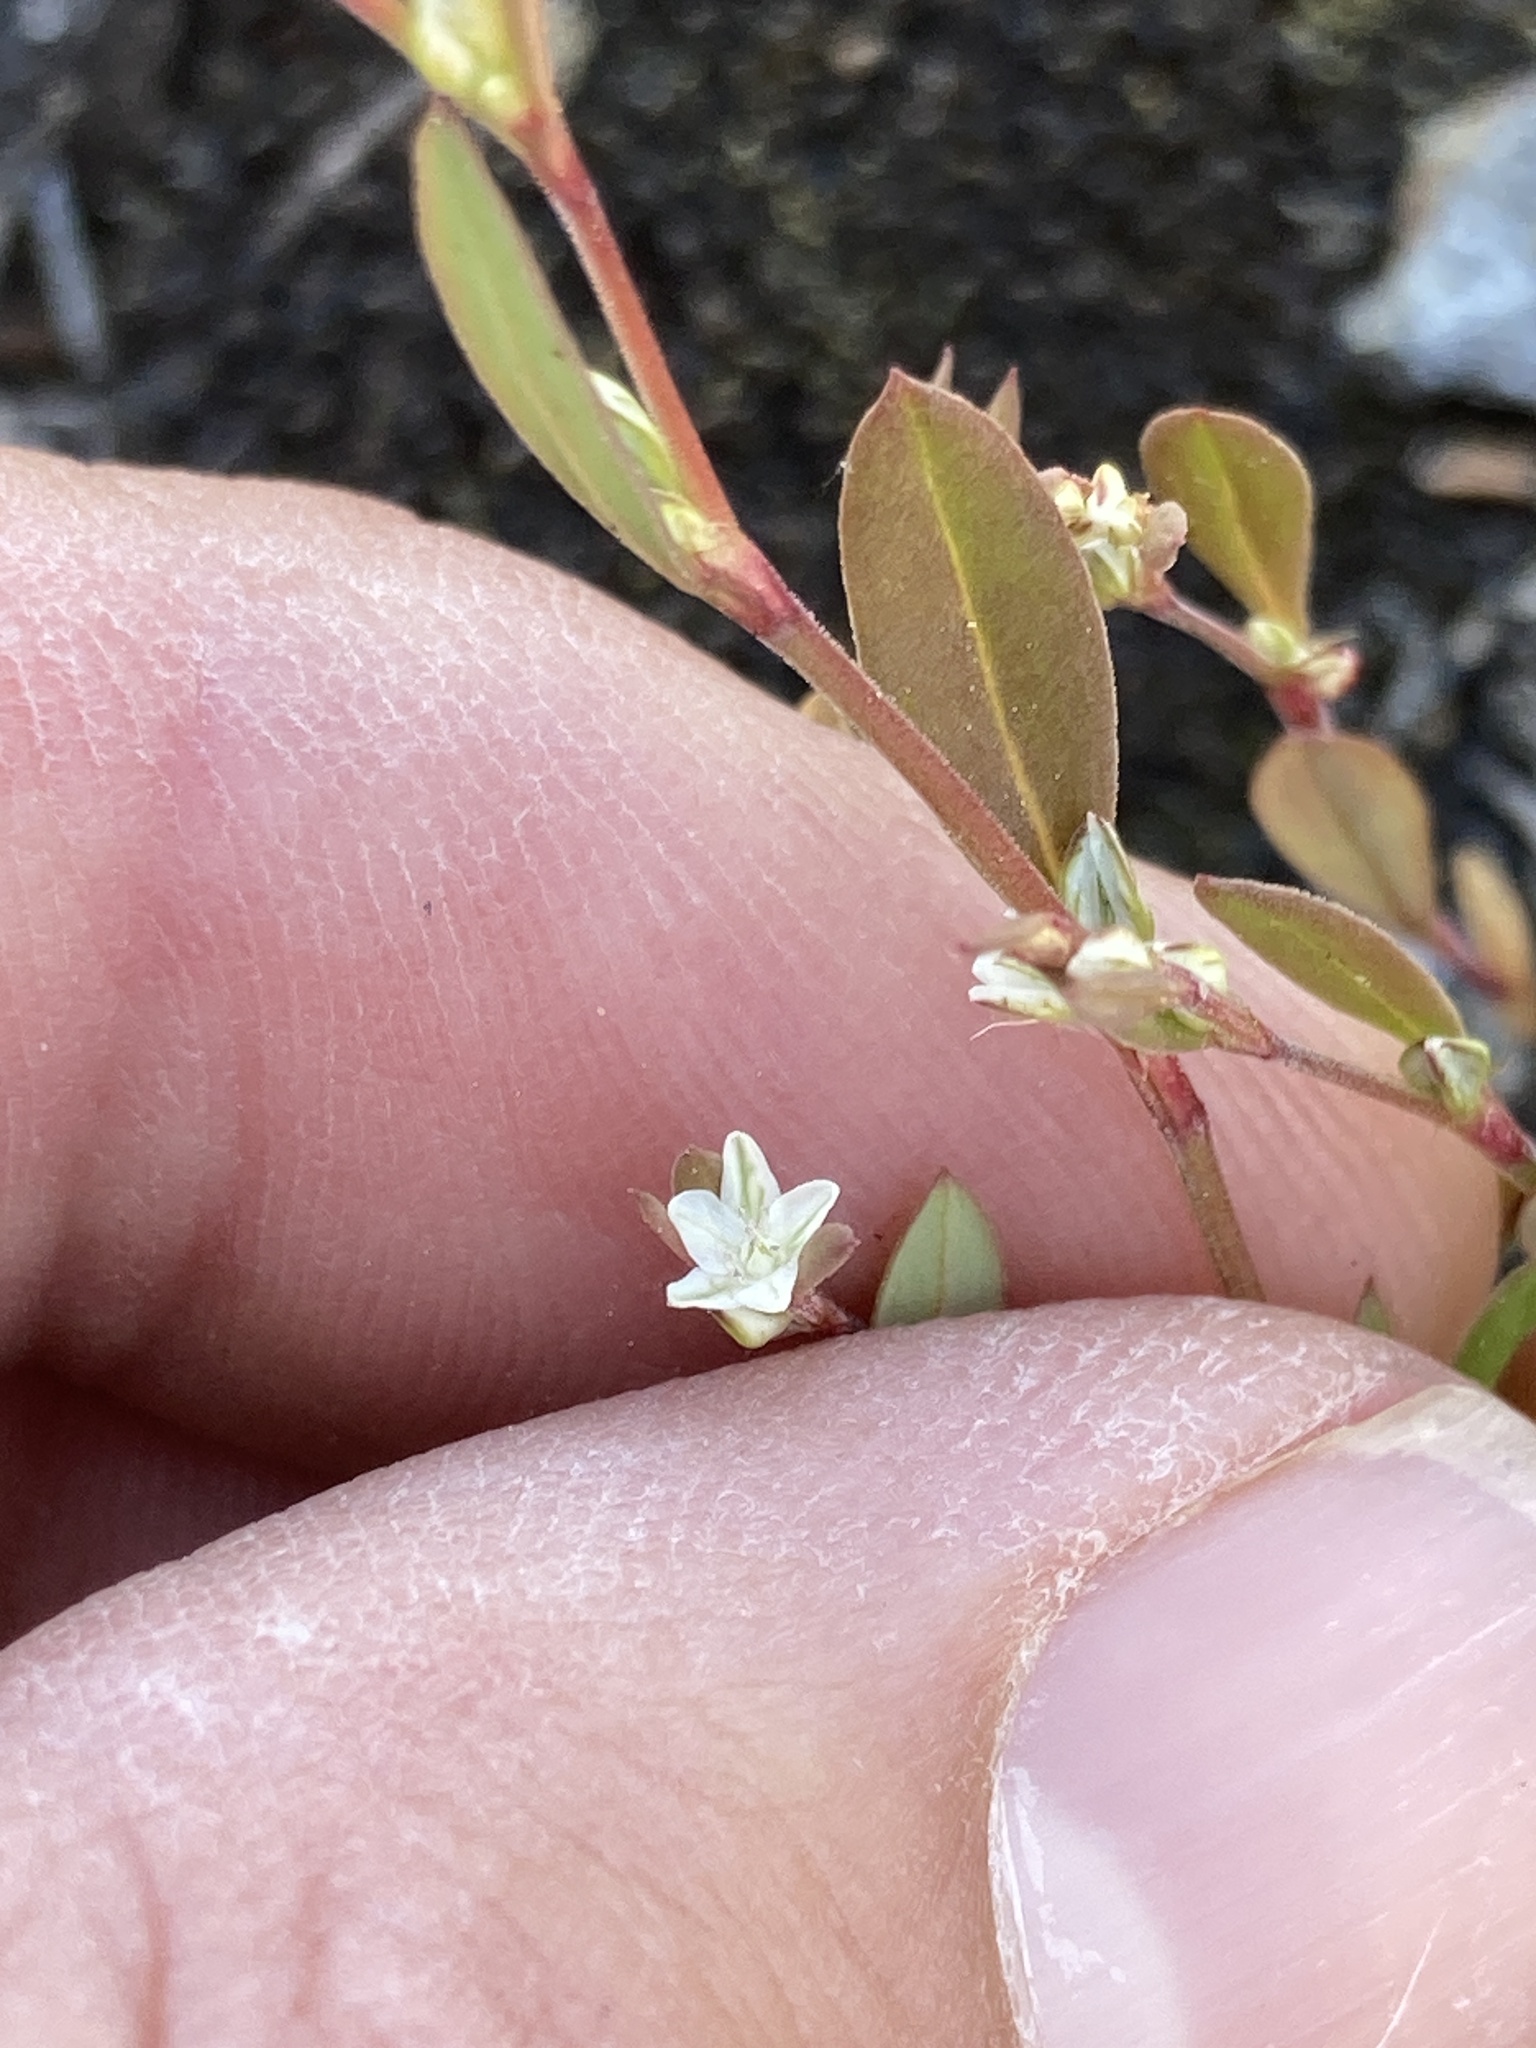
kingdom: Plantae
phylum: Tracheophyta
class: Magnoliopsida
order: Caryophyllales
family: Polygonaceae
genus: Polygonum
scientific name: Polygonum douglasii
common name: Douglas' knotweed
